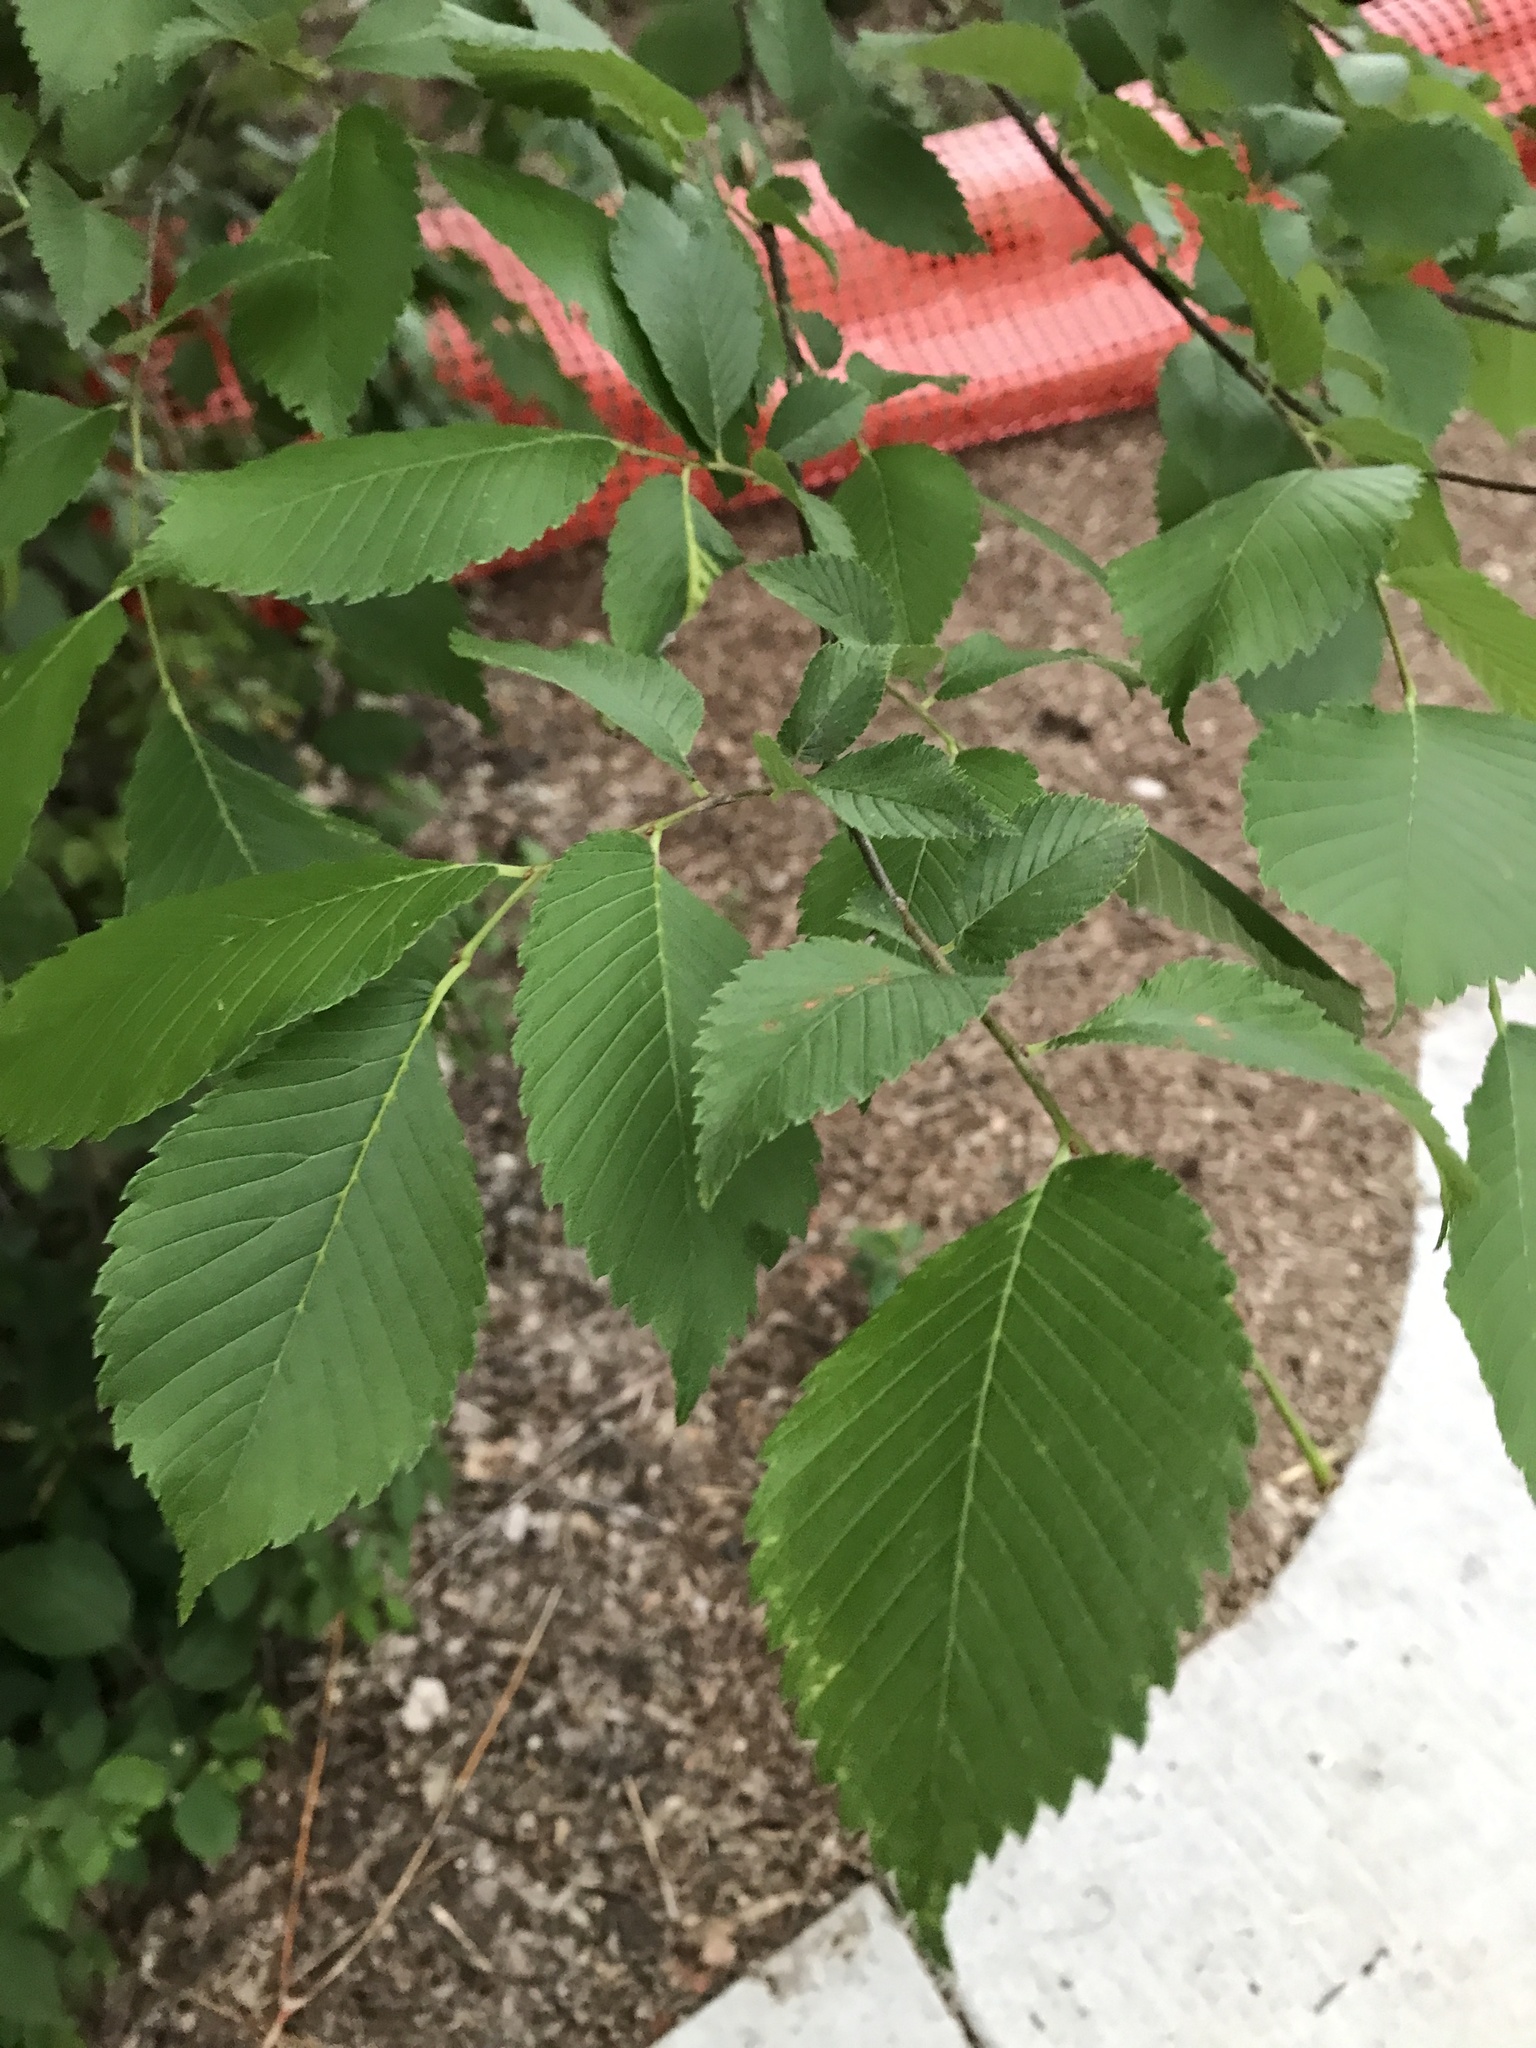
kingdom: Plantae
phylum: Tracheophyta
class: Magnoliopsida
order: Rosales
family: Ulmaceae
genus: Ulmus
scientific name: Ulmus americana
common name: American elm
